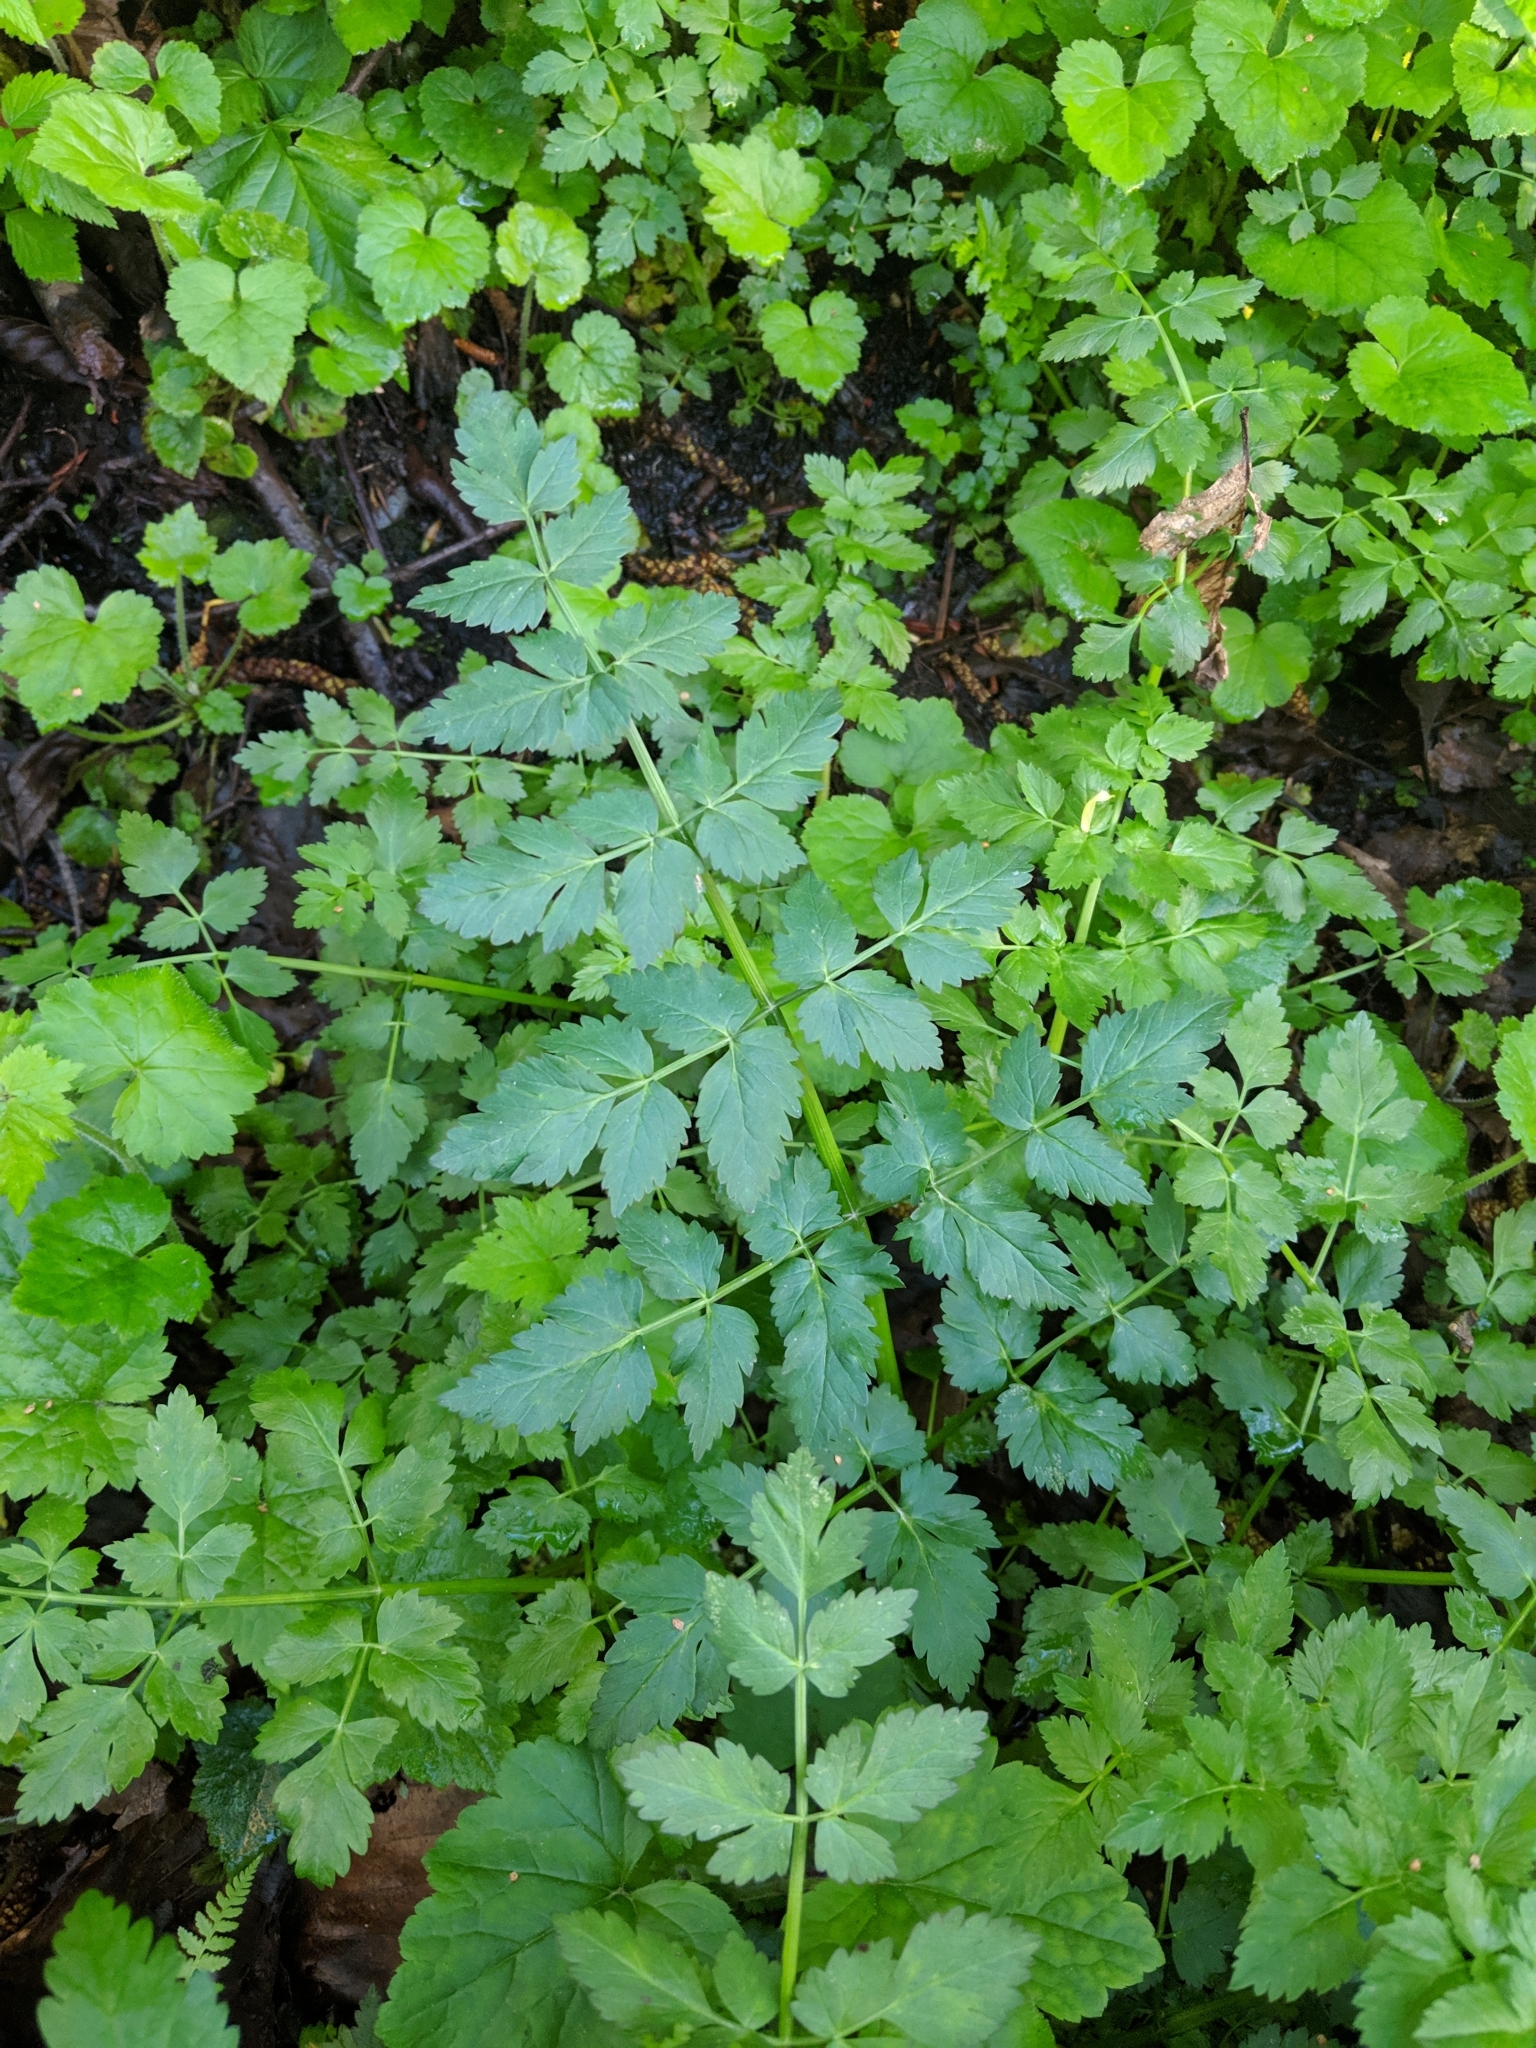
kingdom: Plantae
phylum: Tracheophyta
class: Magnoliopsida
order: Apiales
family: Apiaceae
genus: Oenanthe
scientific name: Oenanthe sarmentosa
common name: American water-parsley
